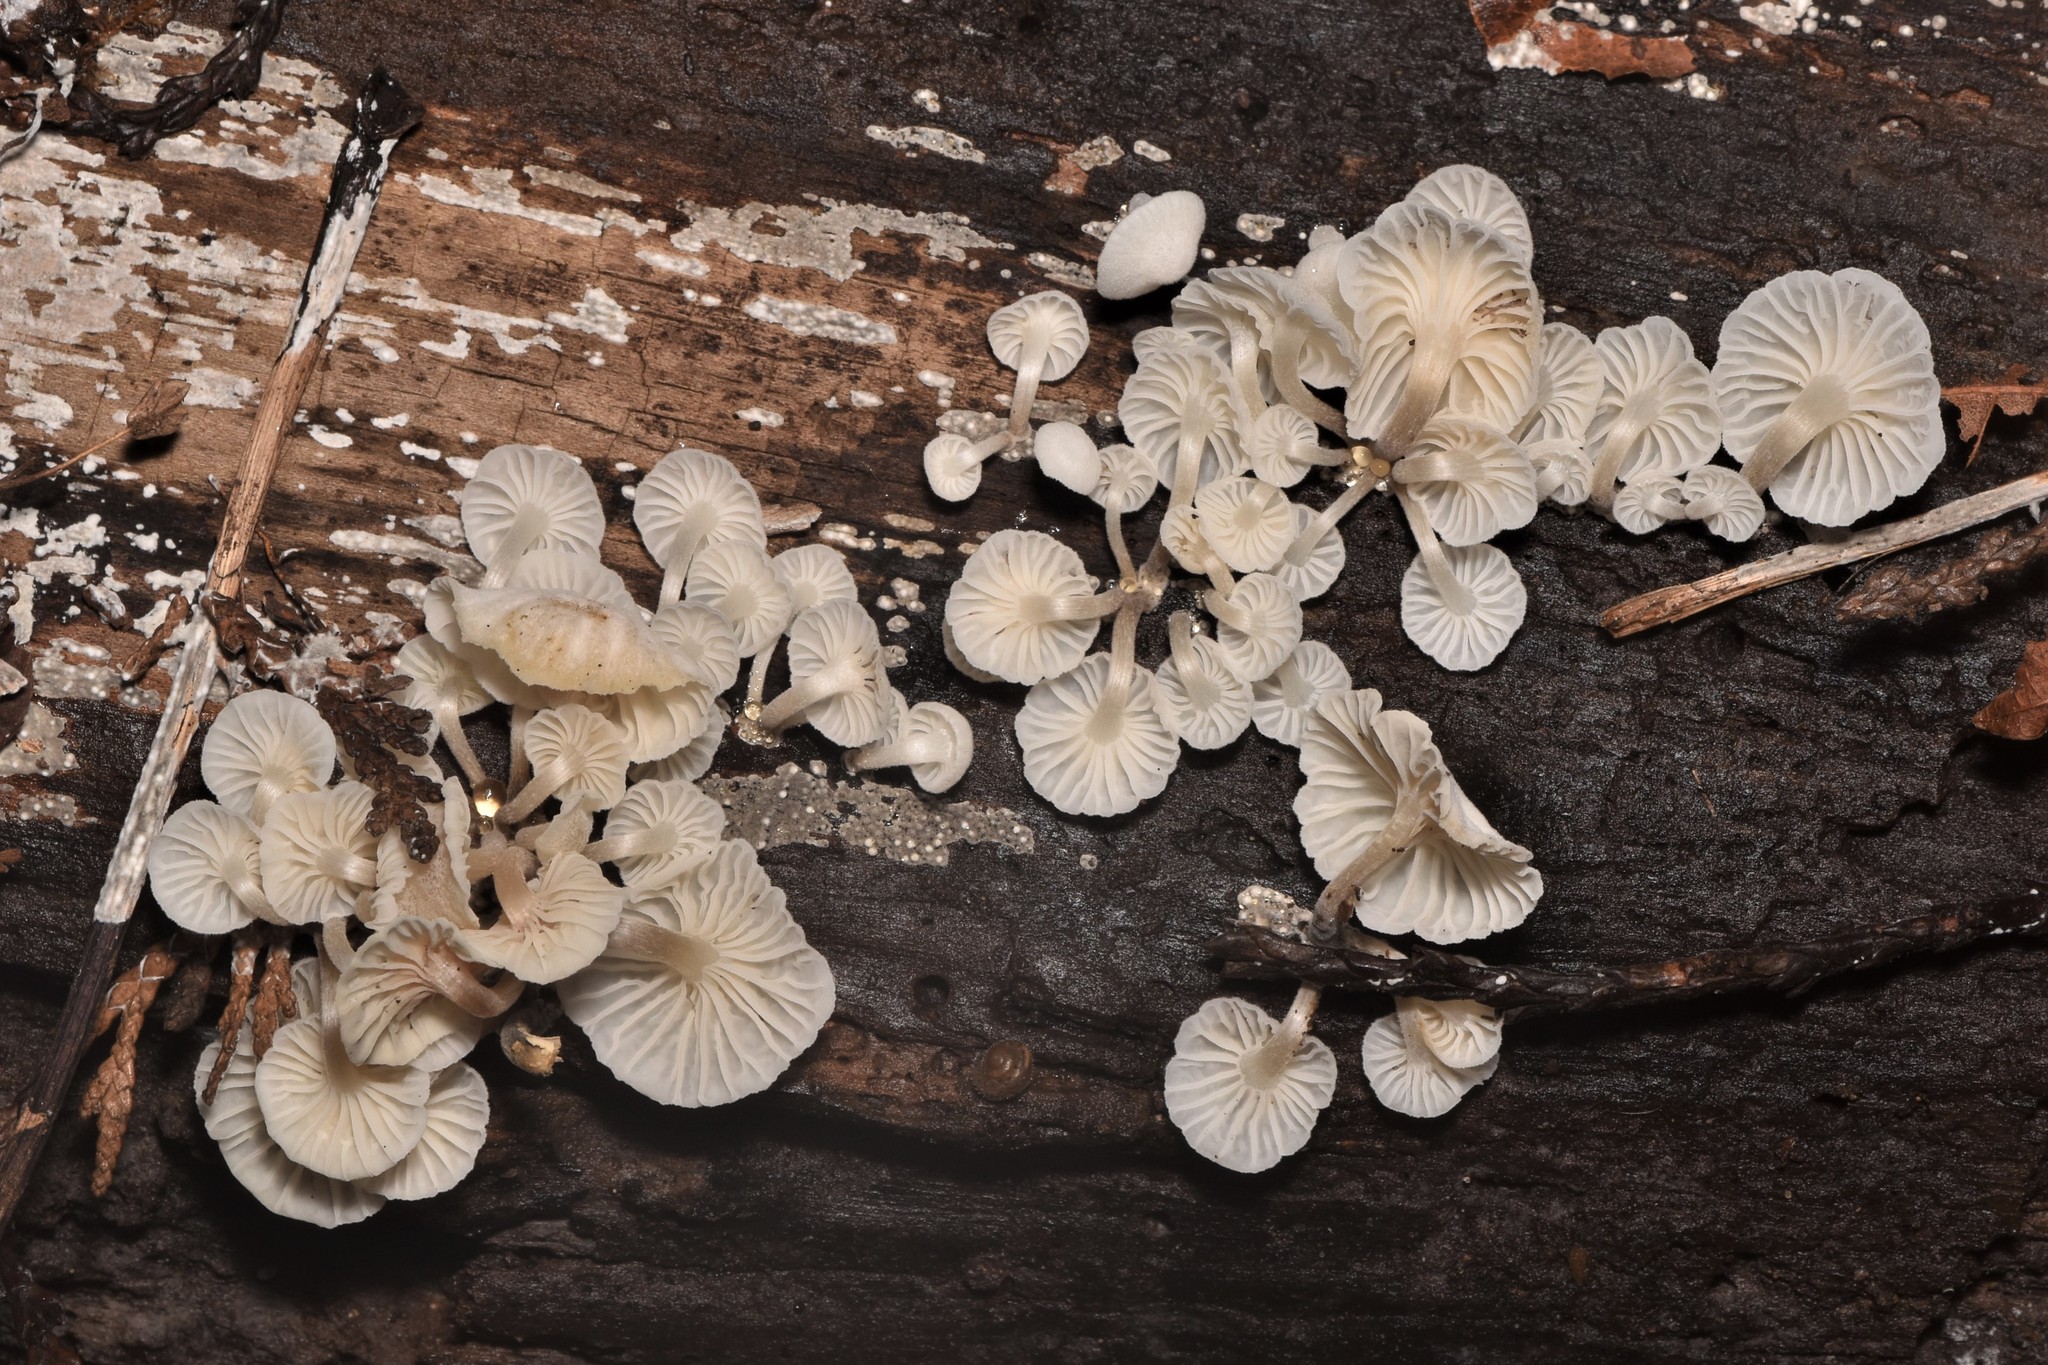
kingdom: Fungi
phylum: Basidiomycota
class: Agaricomycetes
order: Agaricales
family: Omphalotaceae
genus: Marasmiellus
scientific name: Marasmiellus candidus
